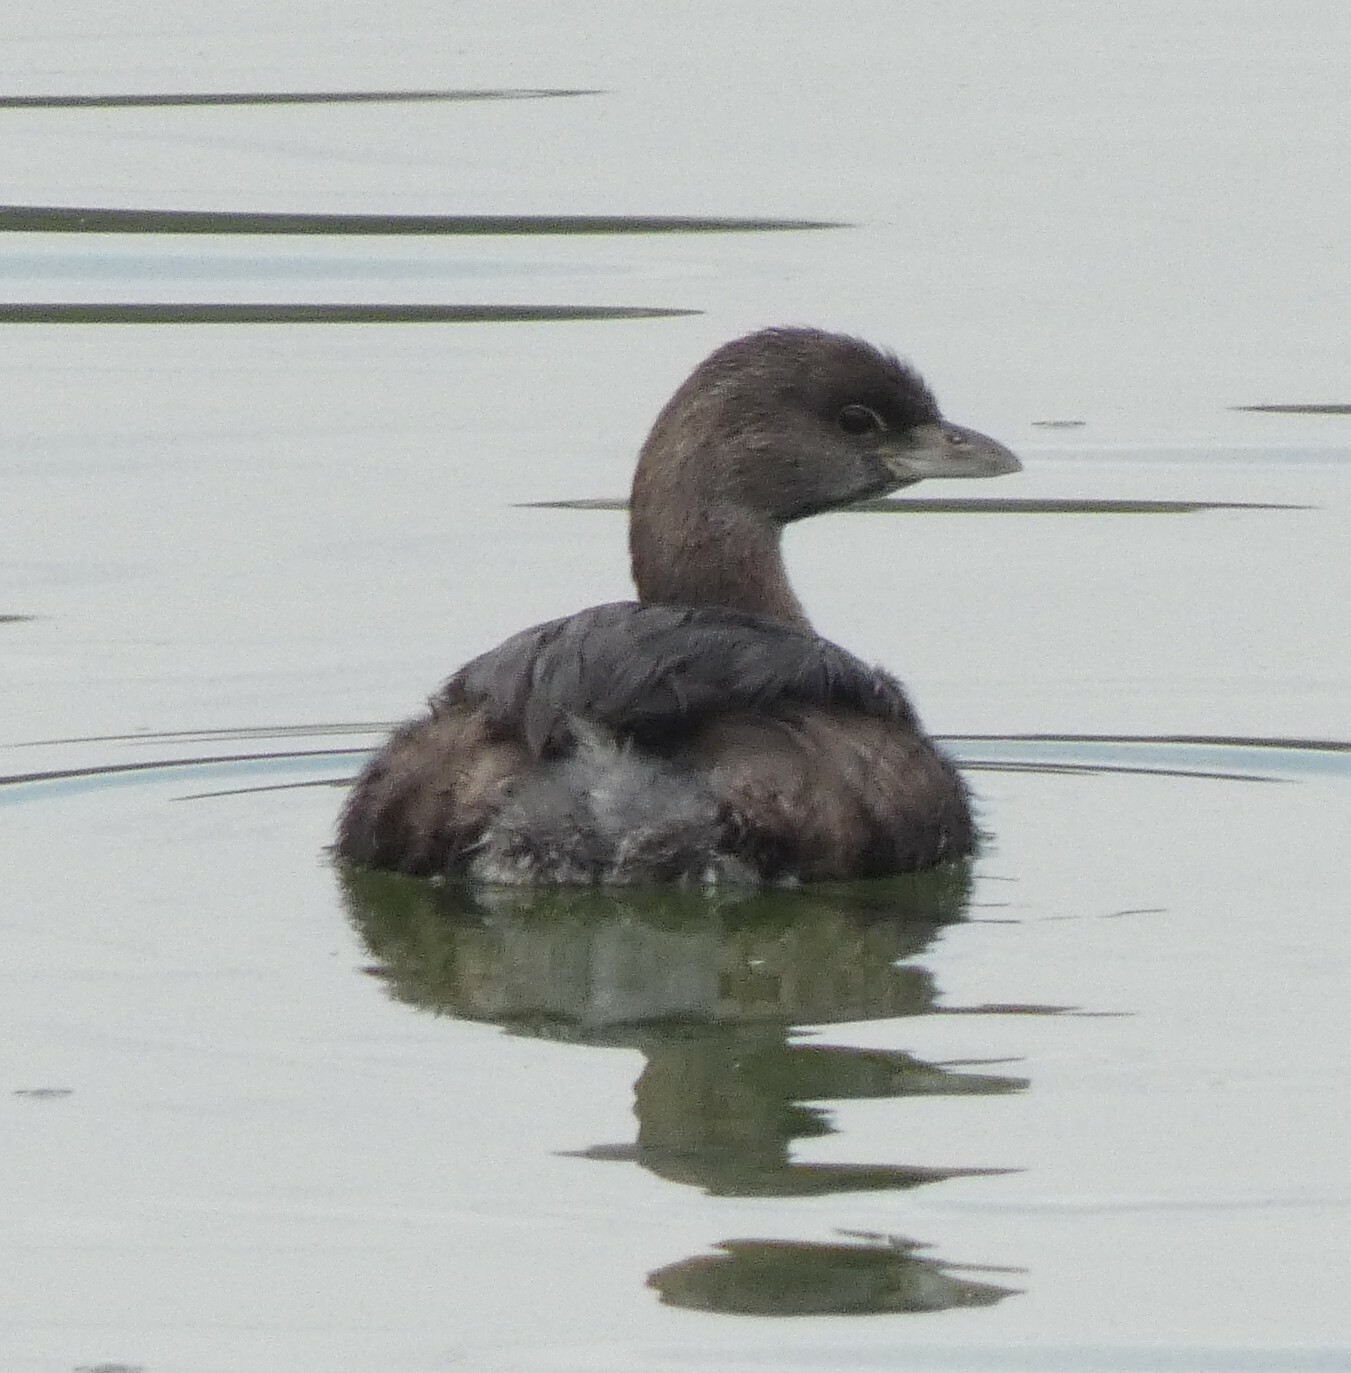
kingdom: Animalia
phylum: Chordata
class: Aves
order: Podicipediformes
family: Podicipedidae
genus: Podilymbus
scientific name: Podilymbus podiceps
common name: Pied-billed grebe
